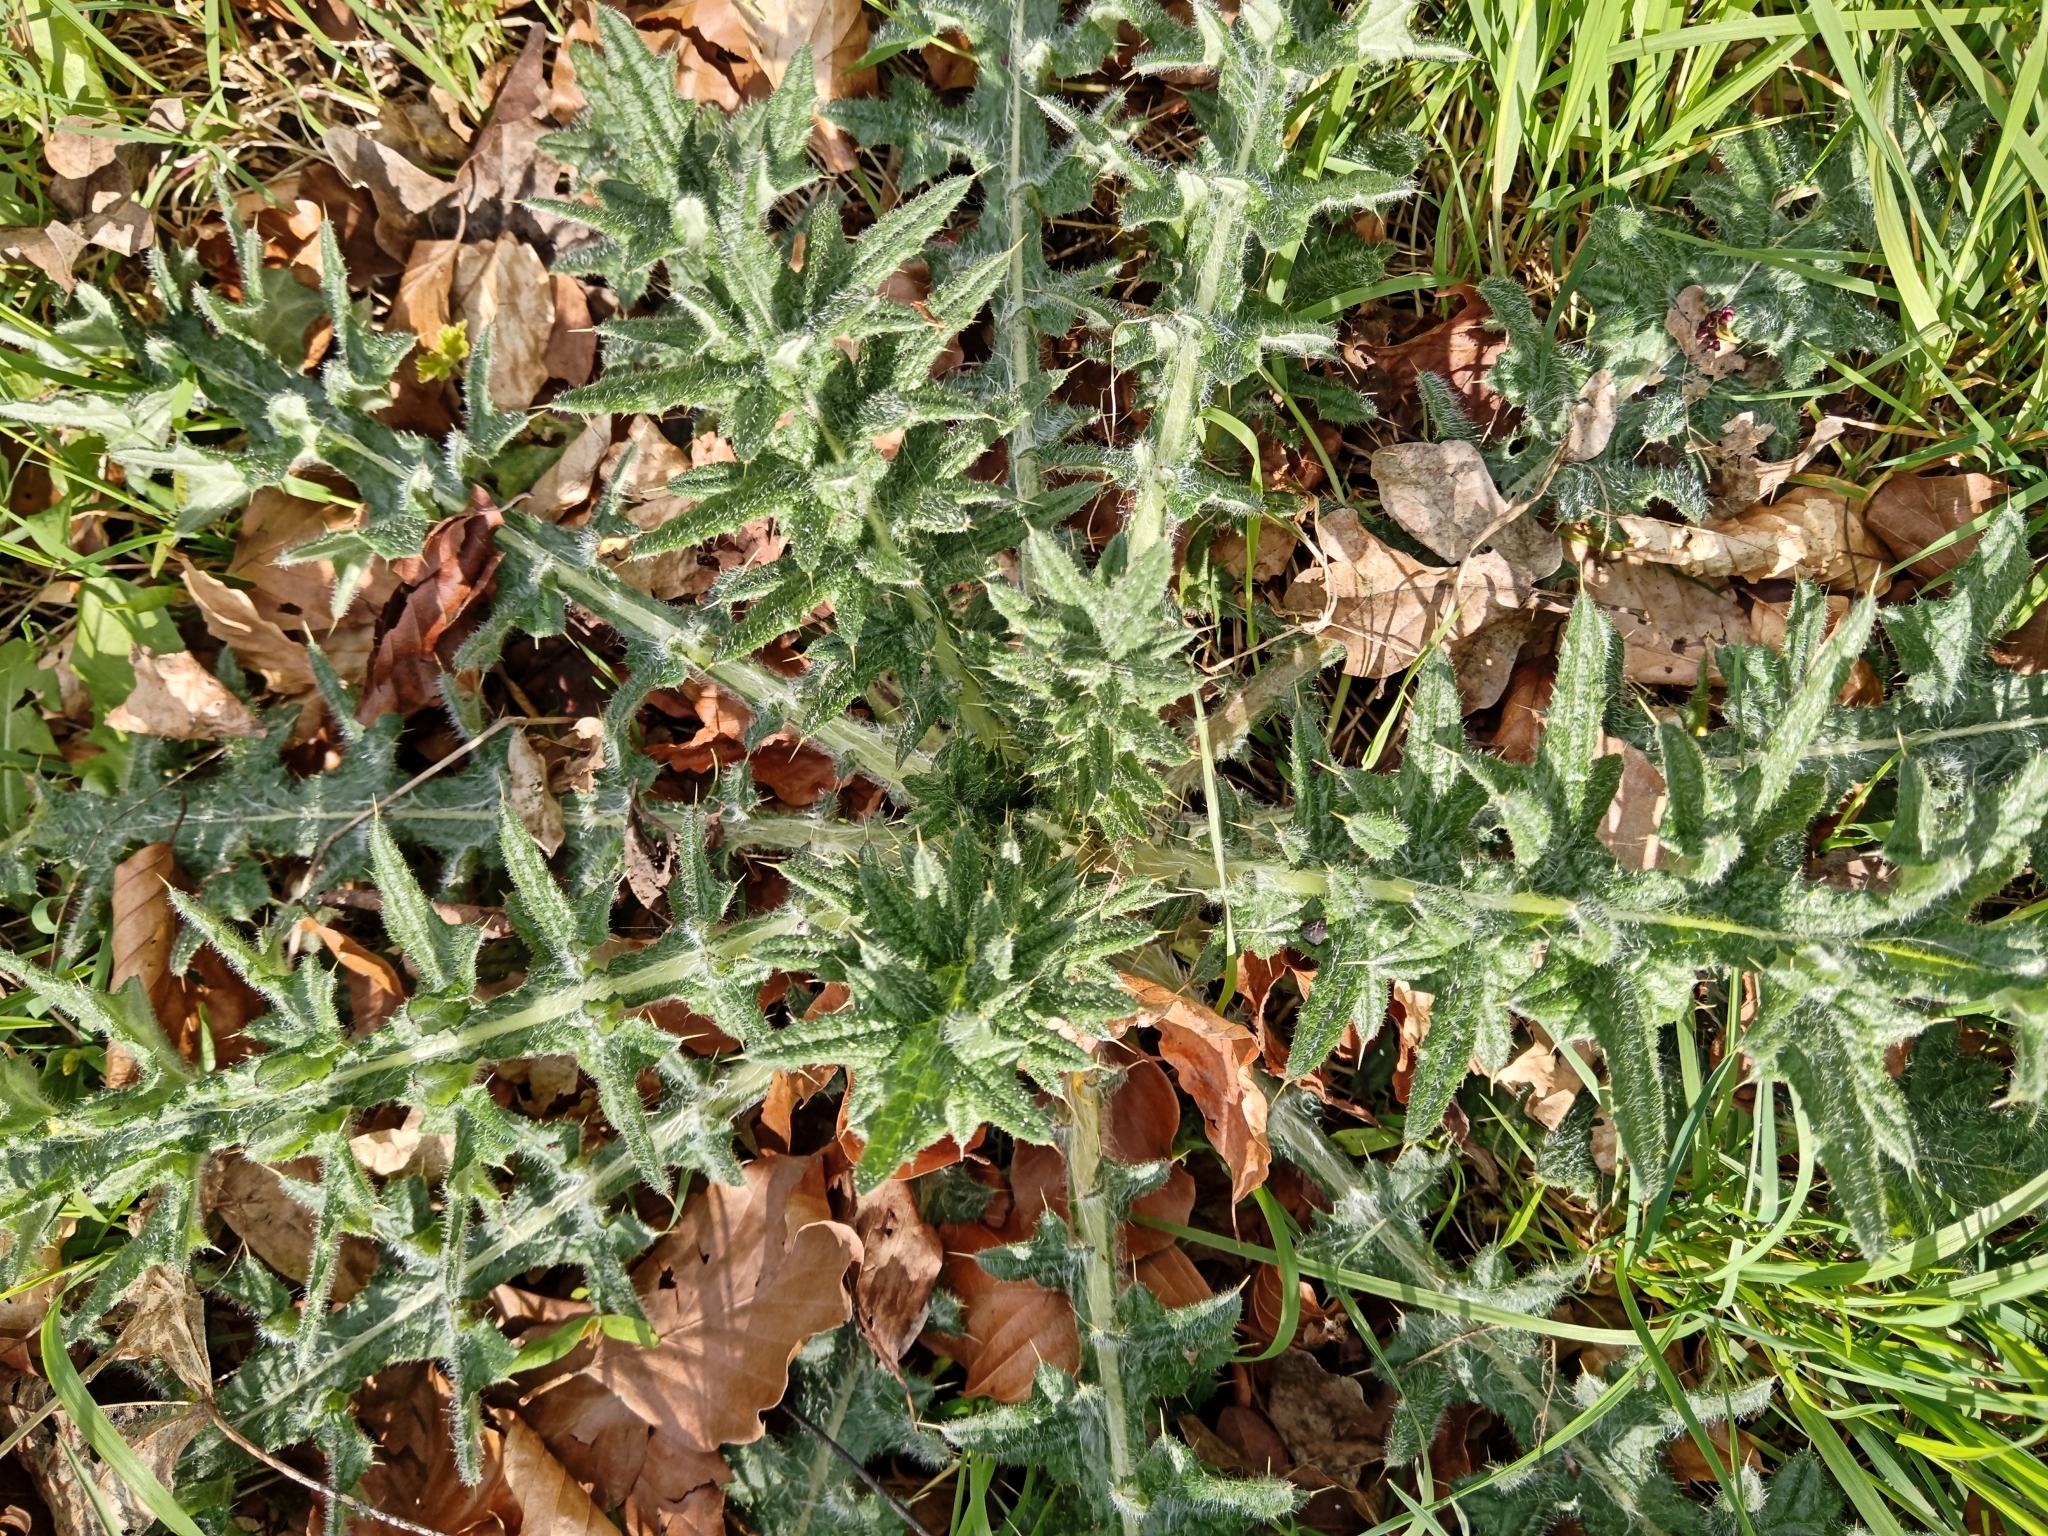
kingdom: Plantae
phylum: Tracheophyta
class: Magnoliopsida
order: Asterales
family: Asteraceae
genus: Cirsium
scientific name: Cirsium vulgare
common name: Bull thistle
